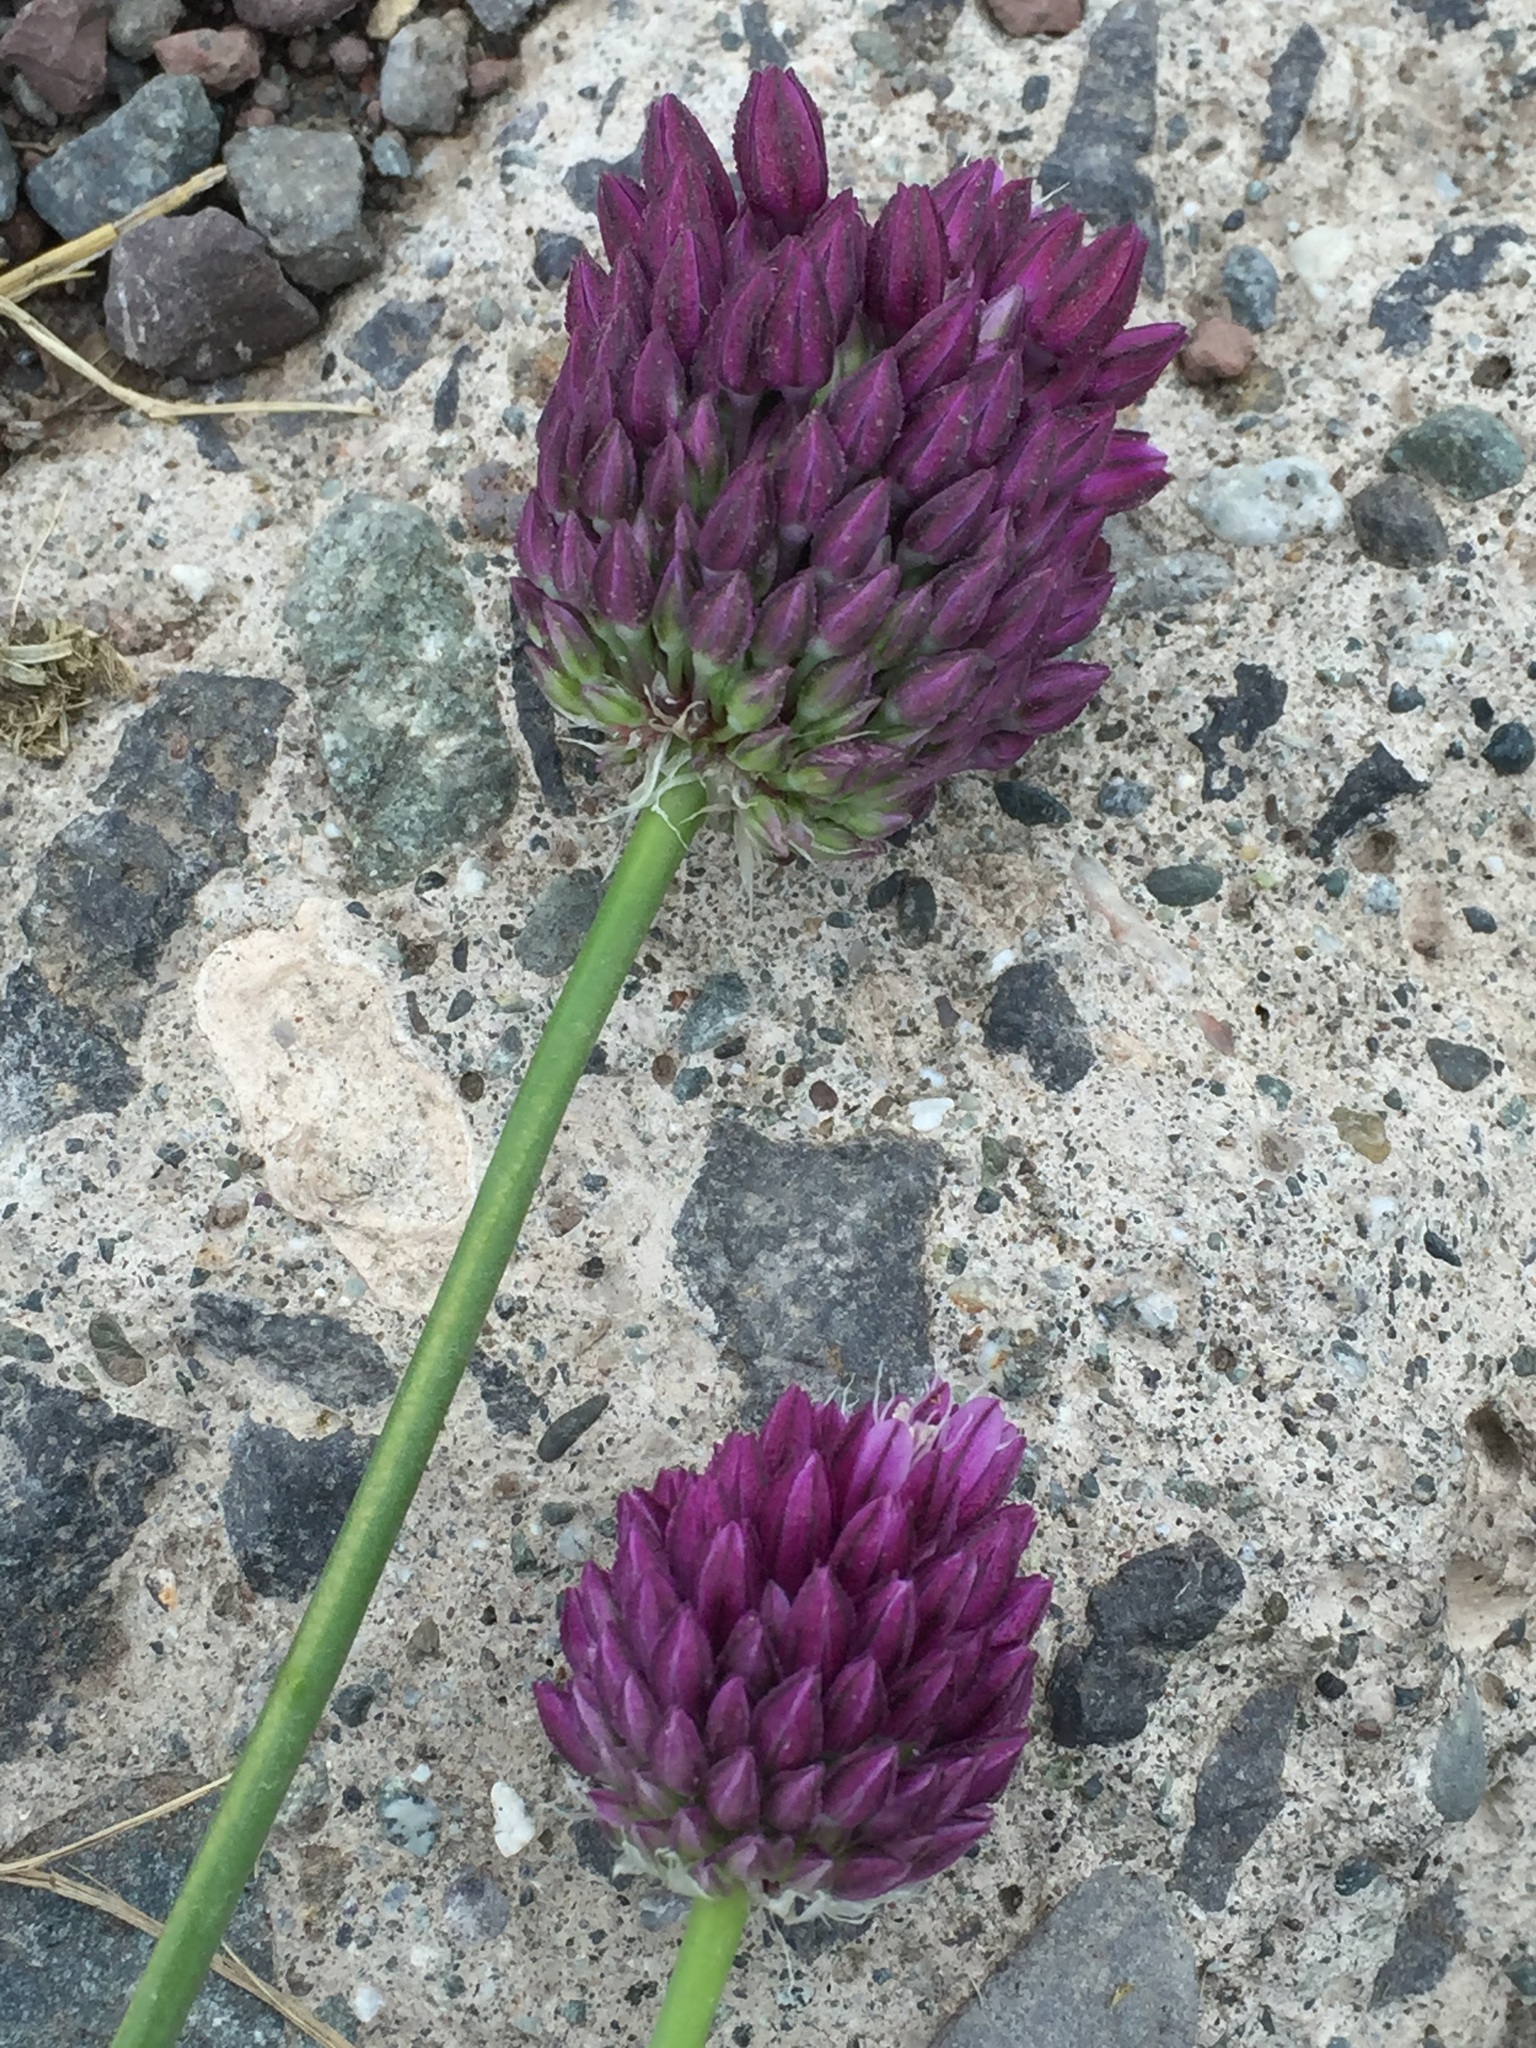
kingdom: Plantae
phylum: Tracheophyta
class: Liliopsida
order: Asparagales
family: Amaryllidaceae
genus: Allium
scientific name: Allium rotundum
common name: Sand leek
